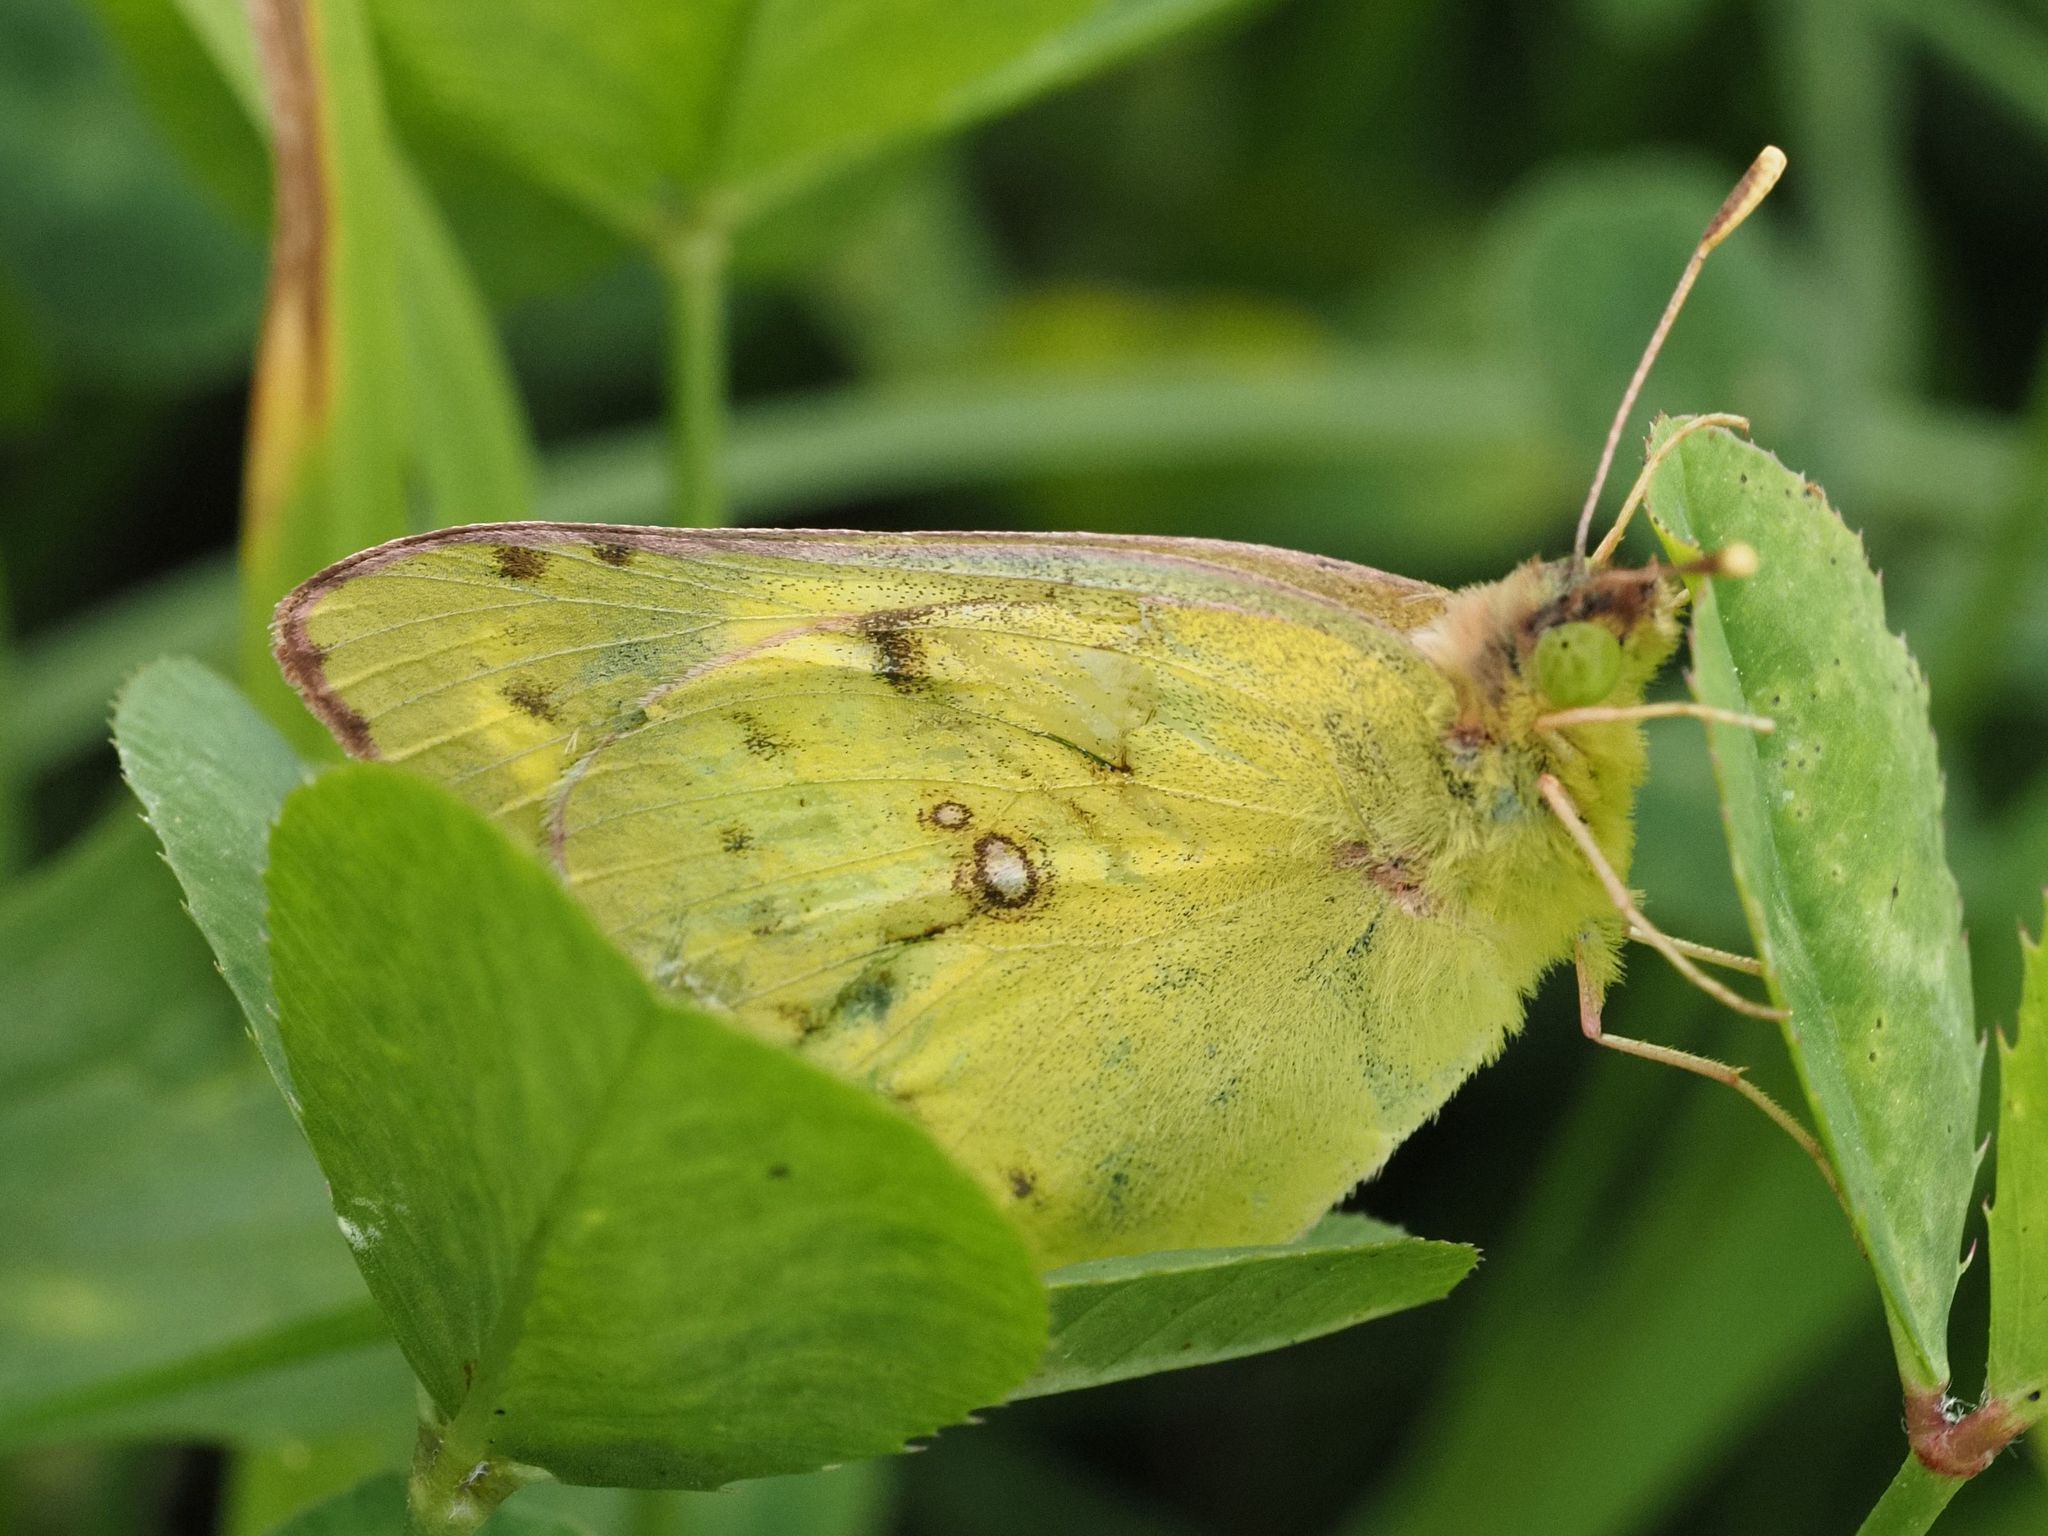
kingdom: Animalia
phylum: Arthropoda
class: Insecta
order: Lepidoptera
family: Pieridae
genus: Colias
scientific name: Colias croceus
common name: Clouded yellow
